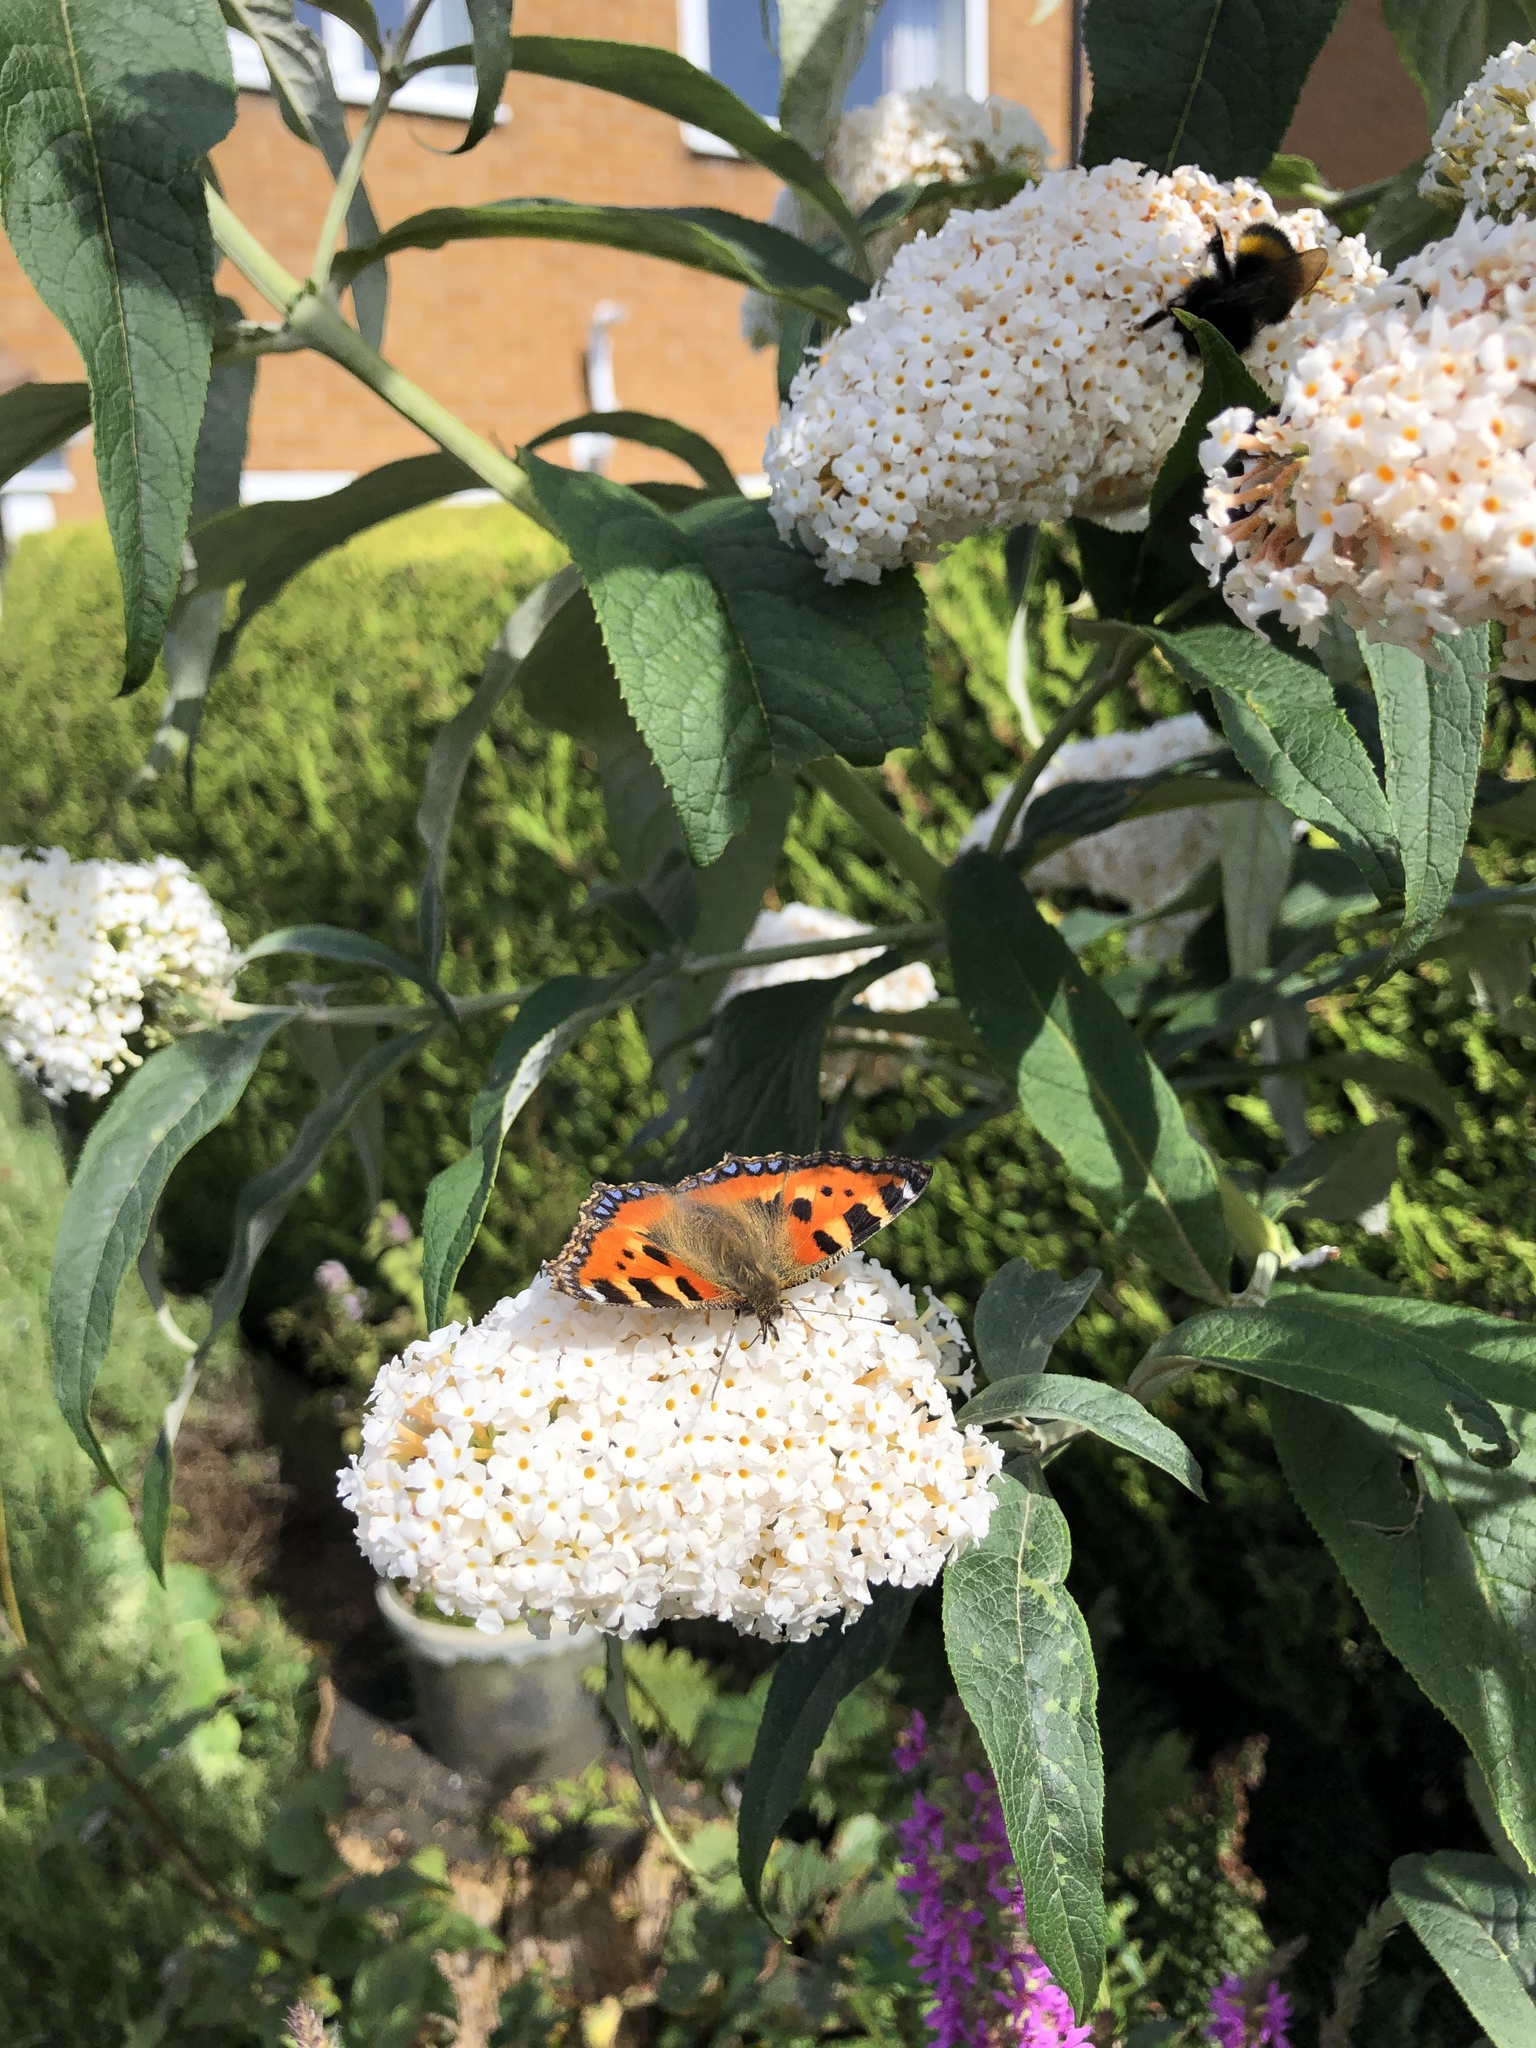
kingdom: Animalia
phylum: Arthropoda
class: Insecta
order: Lepidoptera
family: Nymphalidae
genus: Aglais
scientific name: Aglais urticae
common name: Small tortoiseshell
